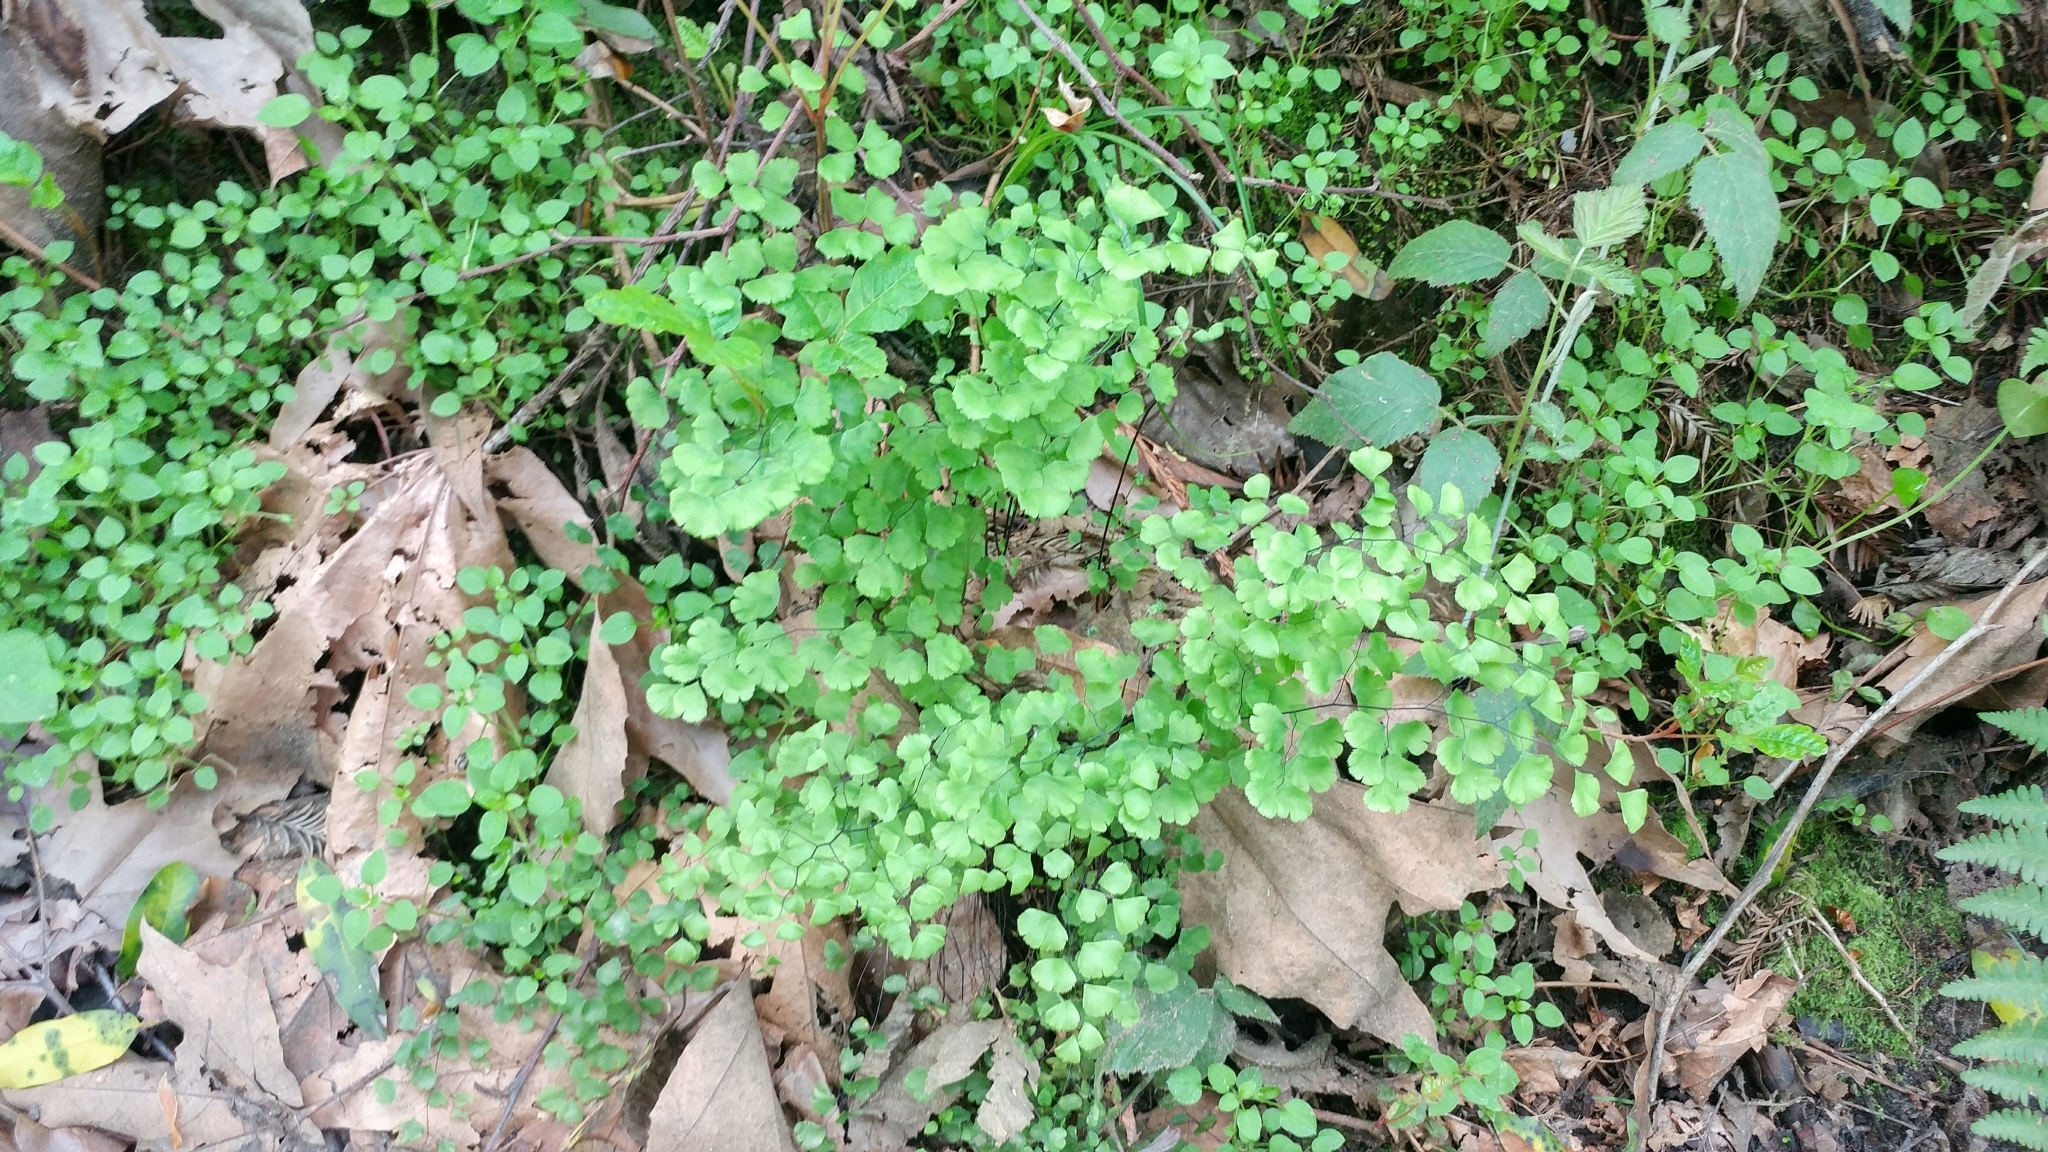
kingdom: Plantae
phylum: Tracheophyta
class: Polypodiopsida
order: Polypodiales
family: Pteridaceae
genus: Adiantum
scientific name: Adiantum jordanii
